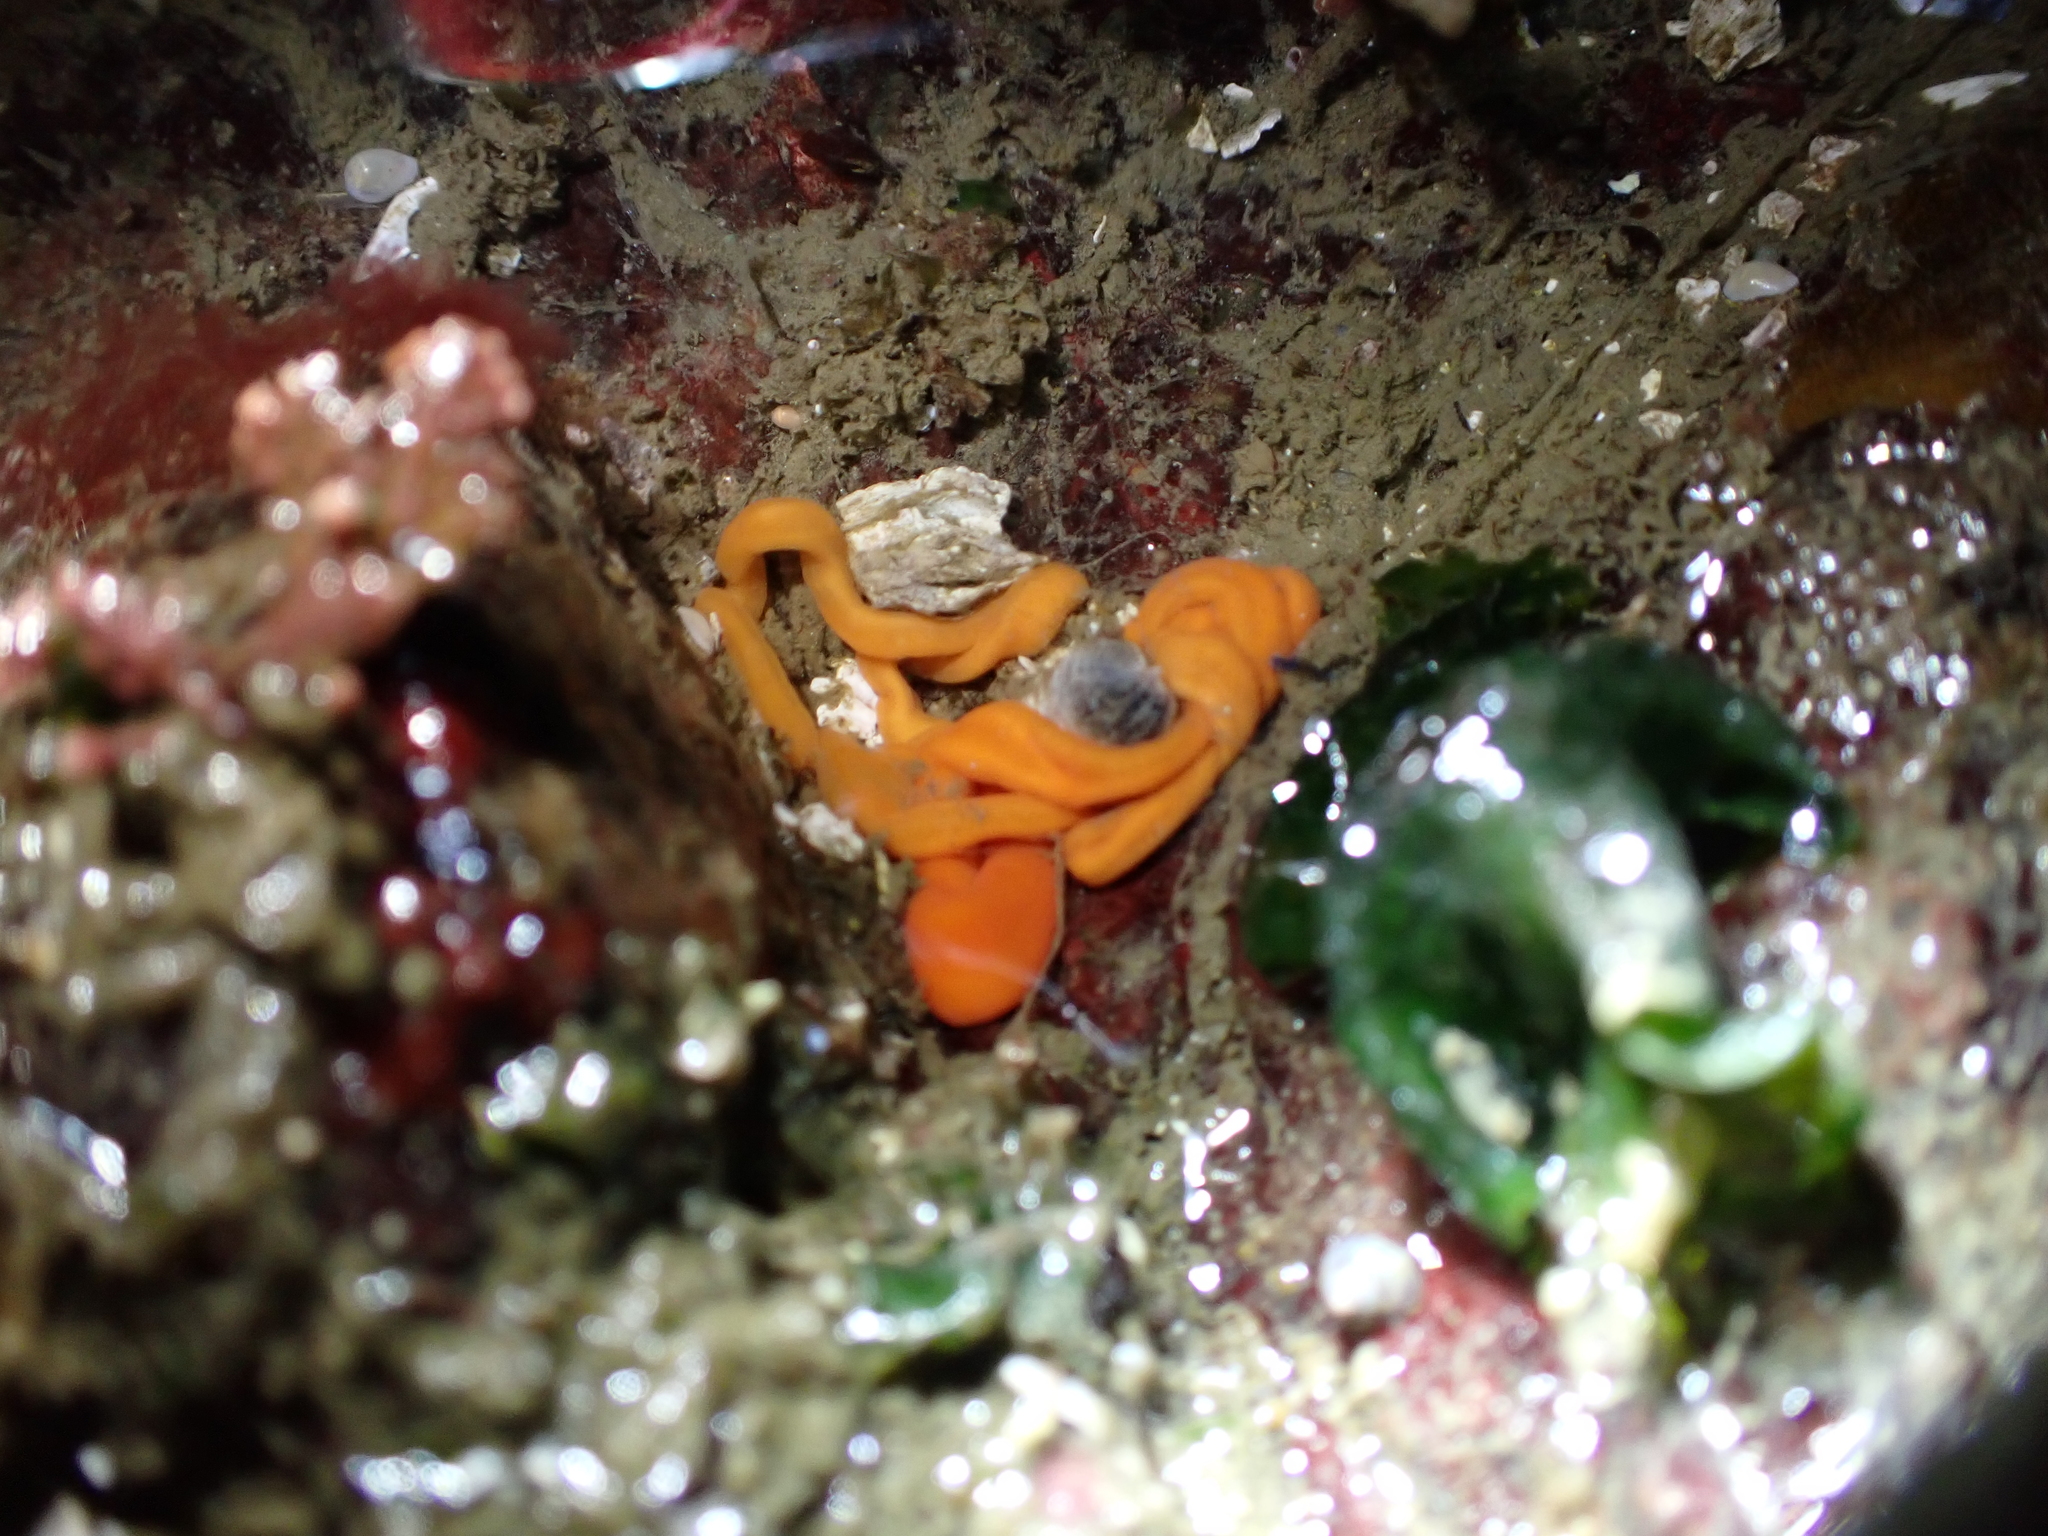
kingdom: Animalia
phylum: Nemertea
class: Palaeonemertea
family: Tubulanidae
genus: Tubulanus
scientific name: Tubulanus polymorphus
